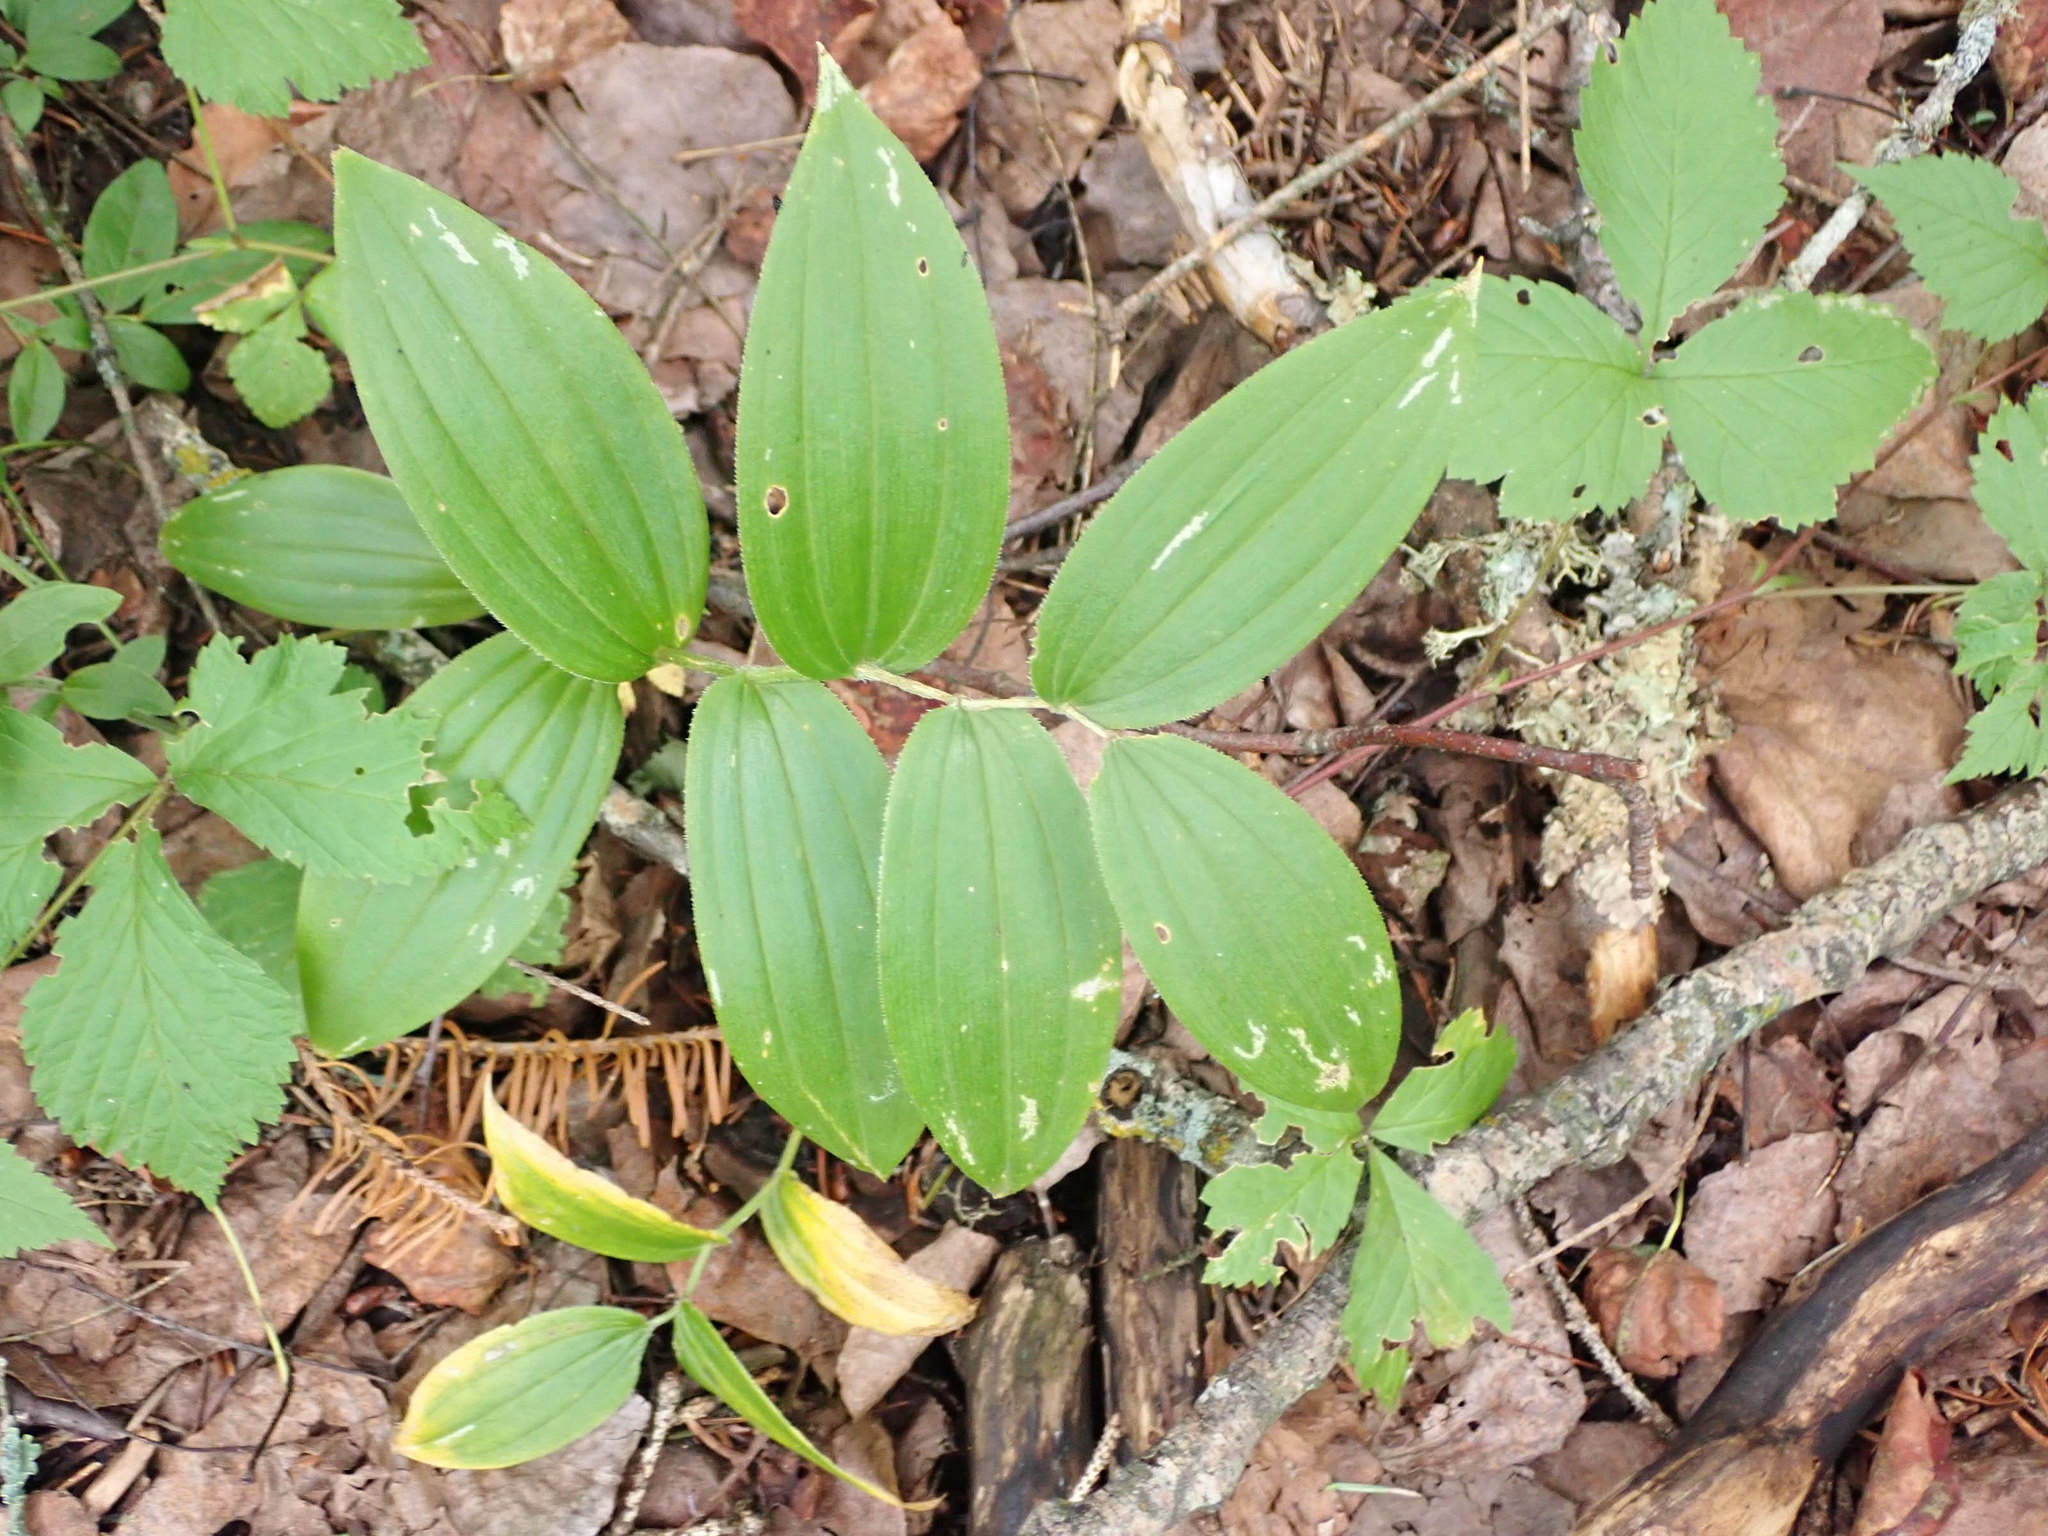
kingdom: Plantae
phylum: Tracheophyta
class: Liliopsida
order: Liliales
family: Liliaceae
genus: Streptopus
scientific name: Streptopus lanceolatus
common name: Rose mandarin
